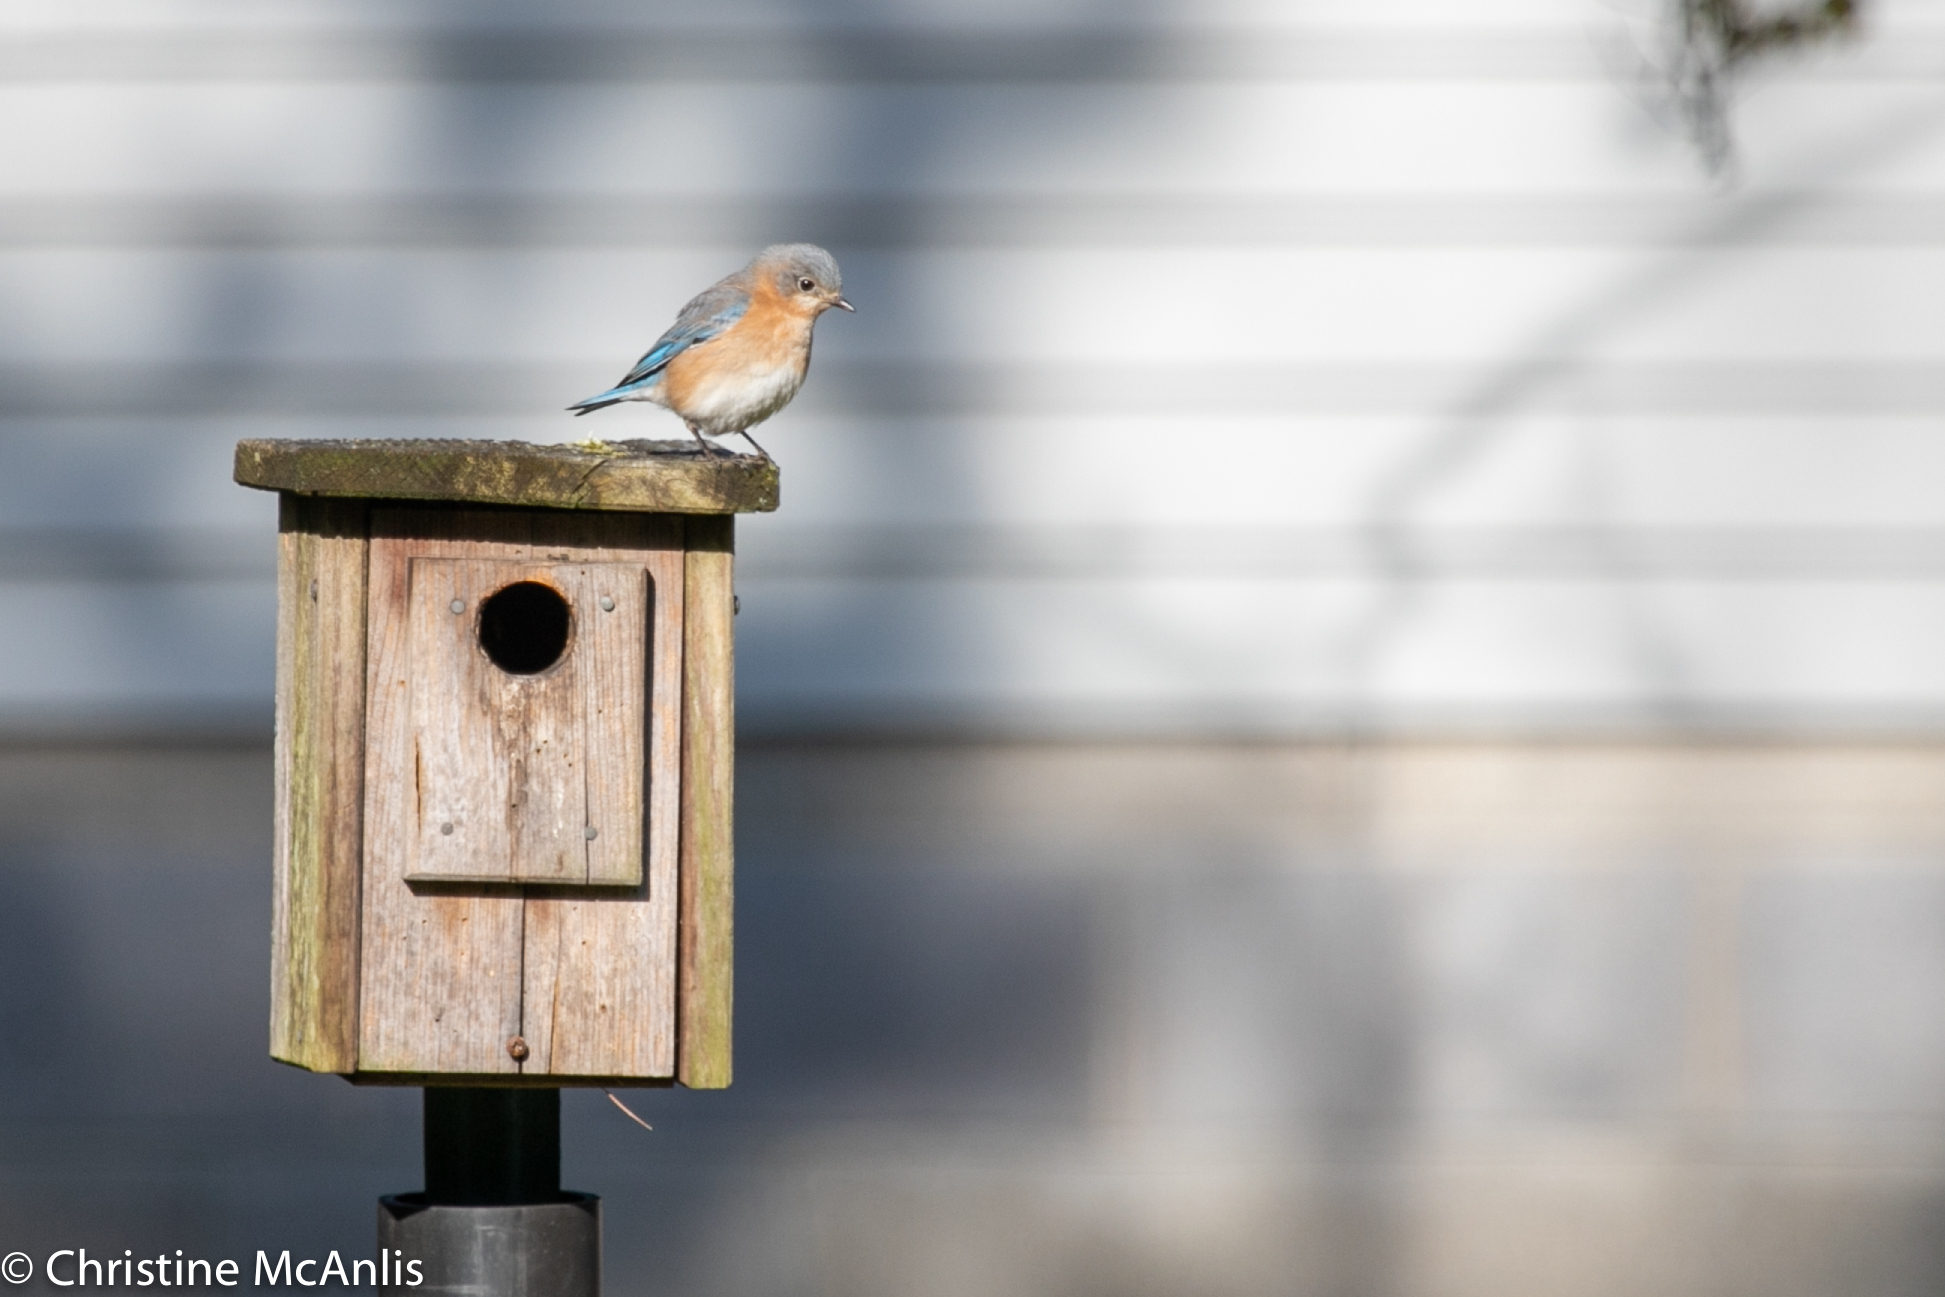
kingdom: Animalia
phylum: Chordata
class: Aves
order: Passeriformes
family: Turdidae
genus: Sialia
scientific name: Sialia sialis
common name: Eastern bluebird
